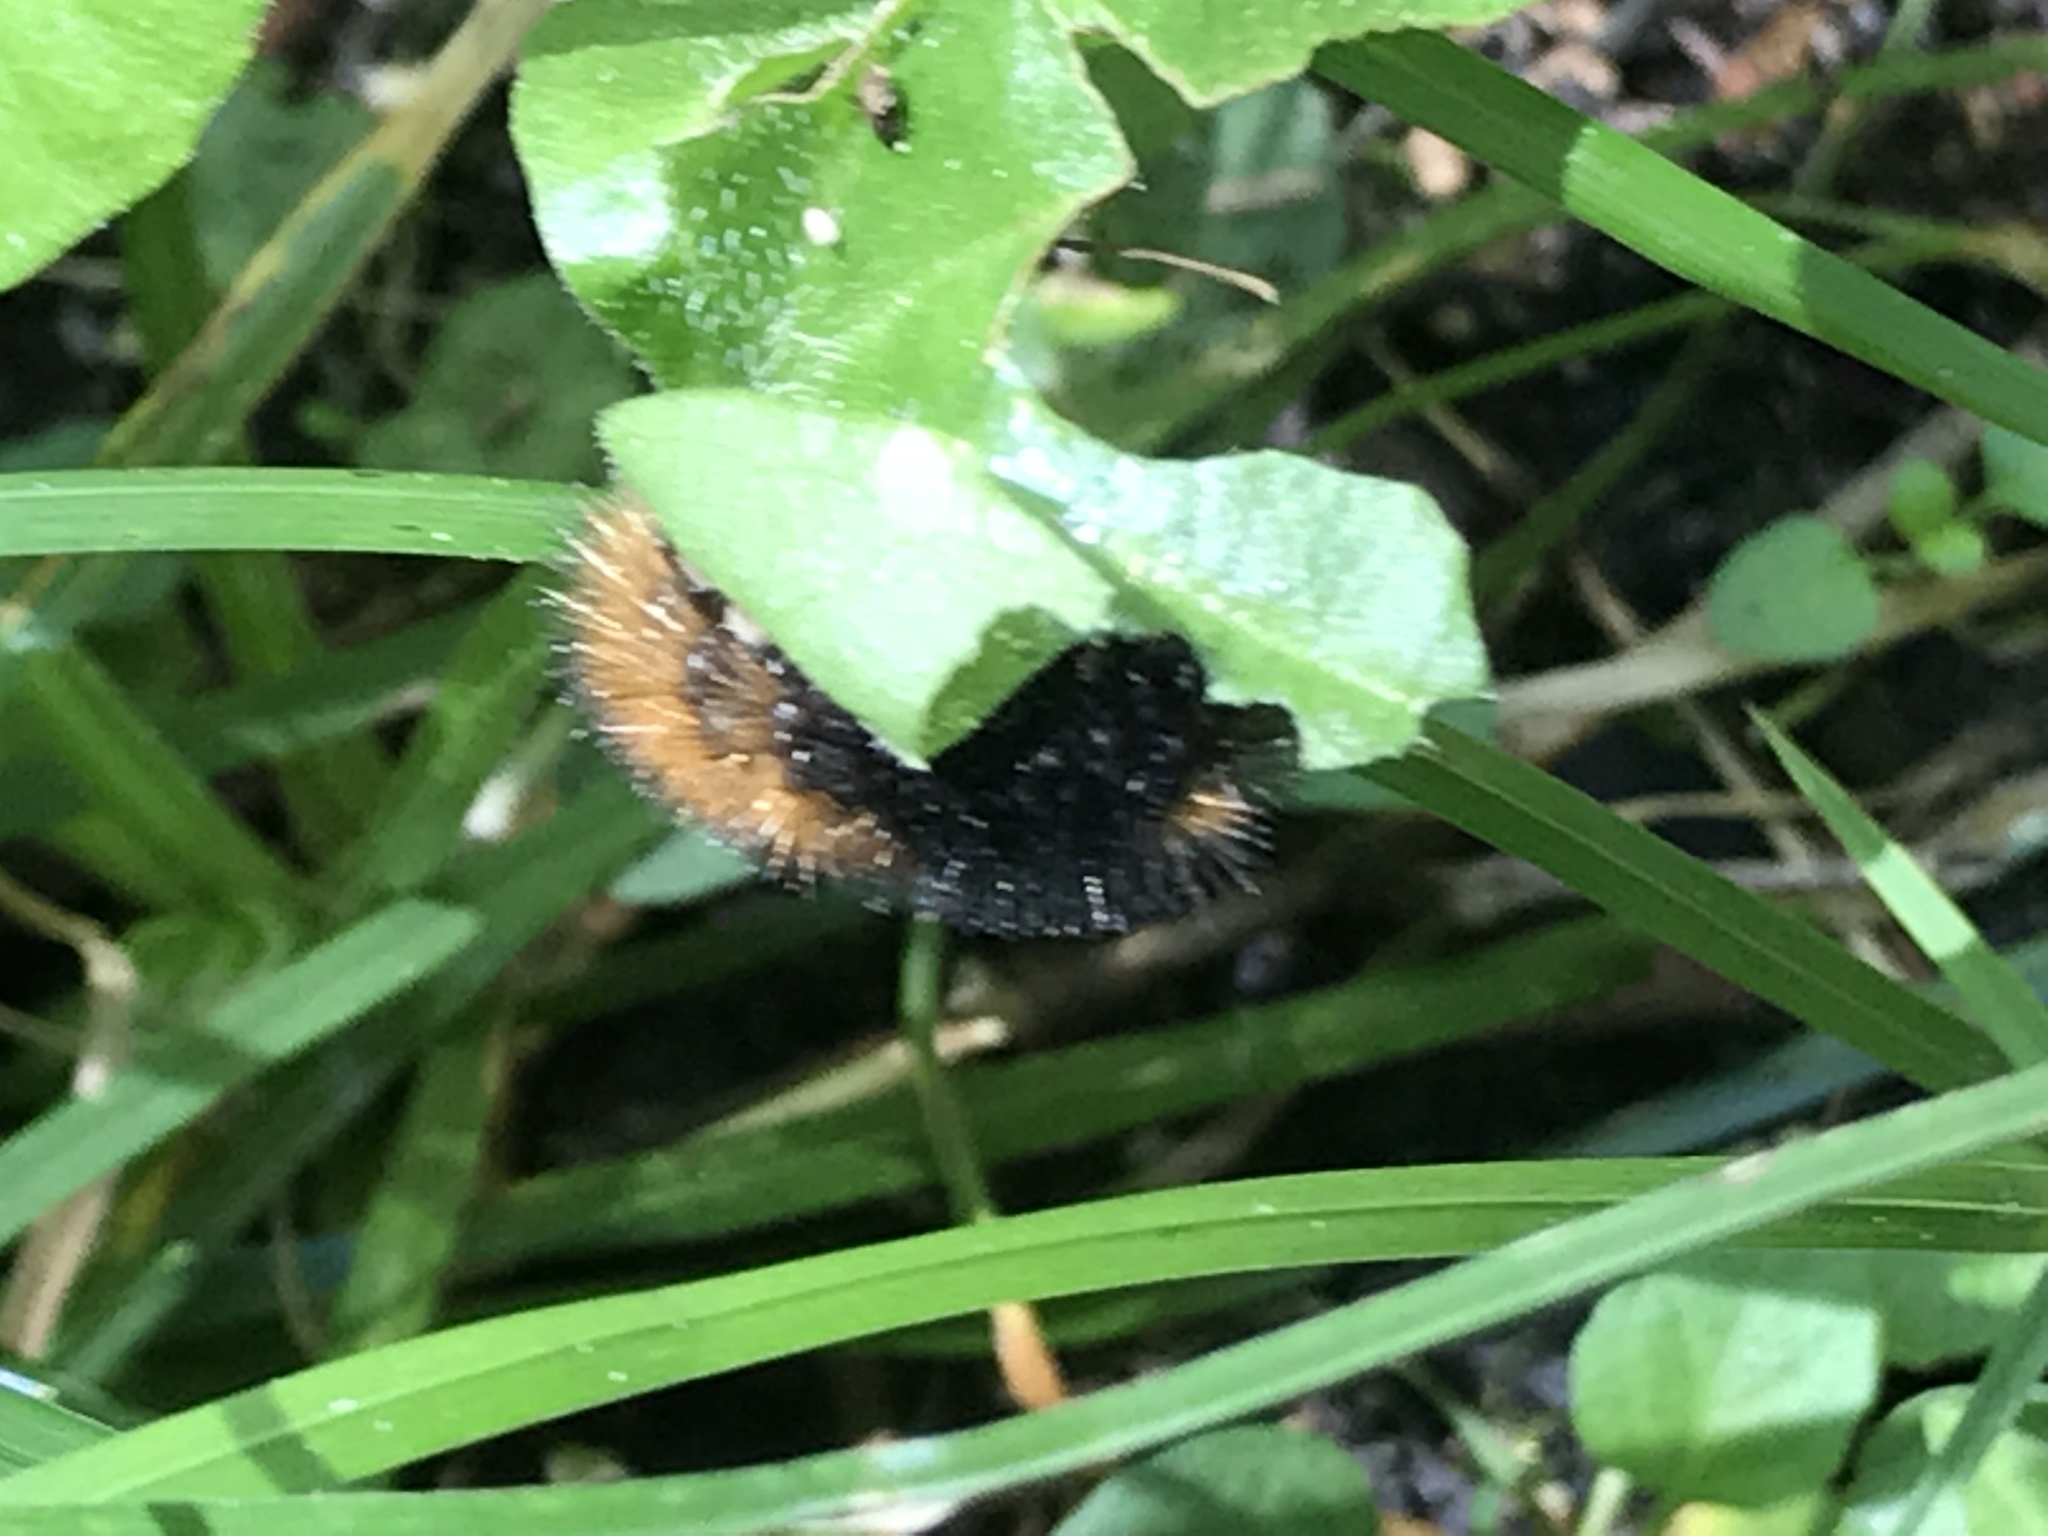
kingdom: Animalia
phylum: Arthropoda
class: Insecta
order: Lepidoptera
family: Erebidae
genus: Pyrrharctia
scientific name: Pyrrharctia isabella
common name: Isabella tiger moth
